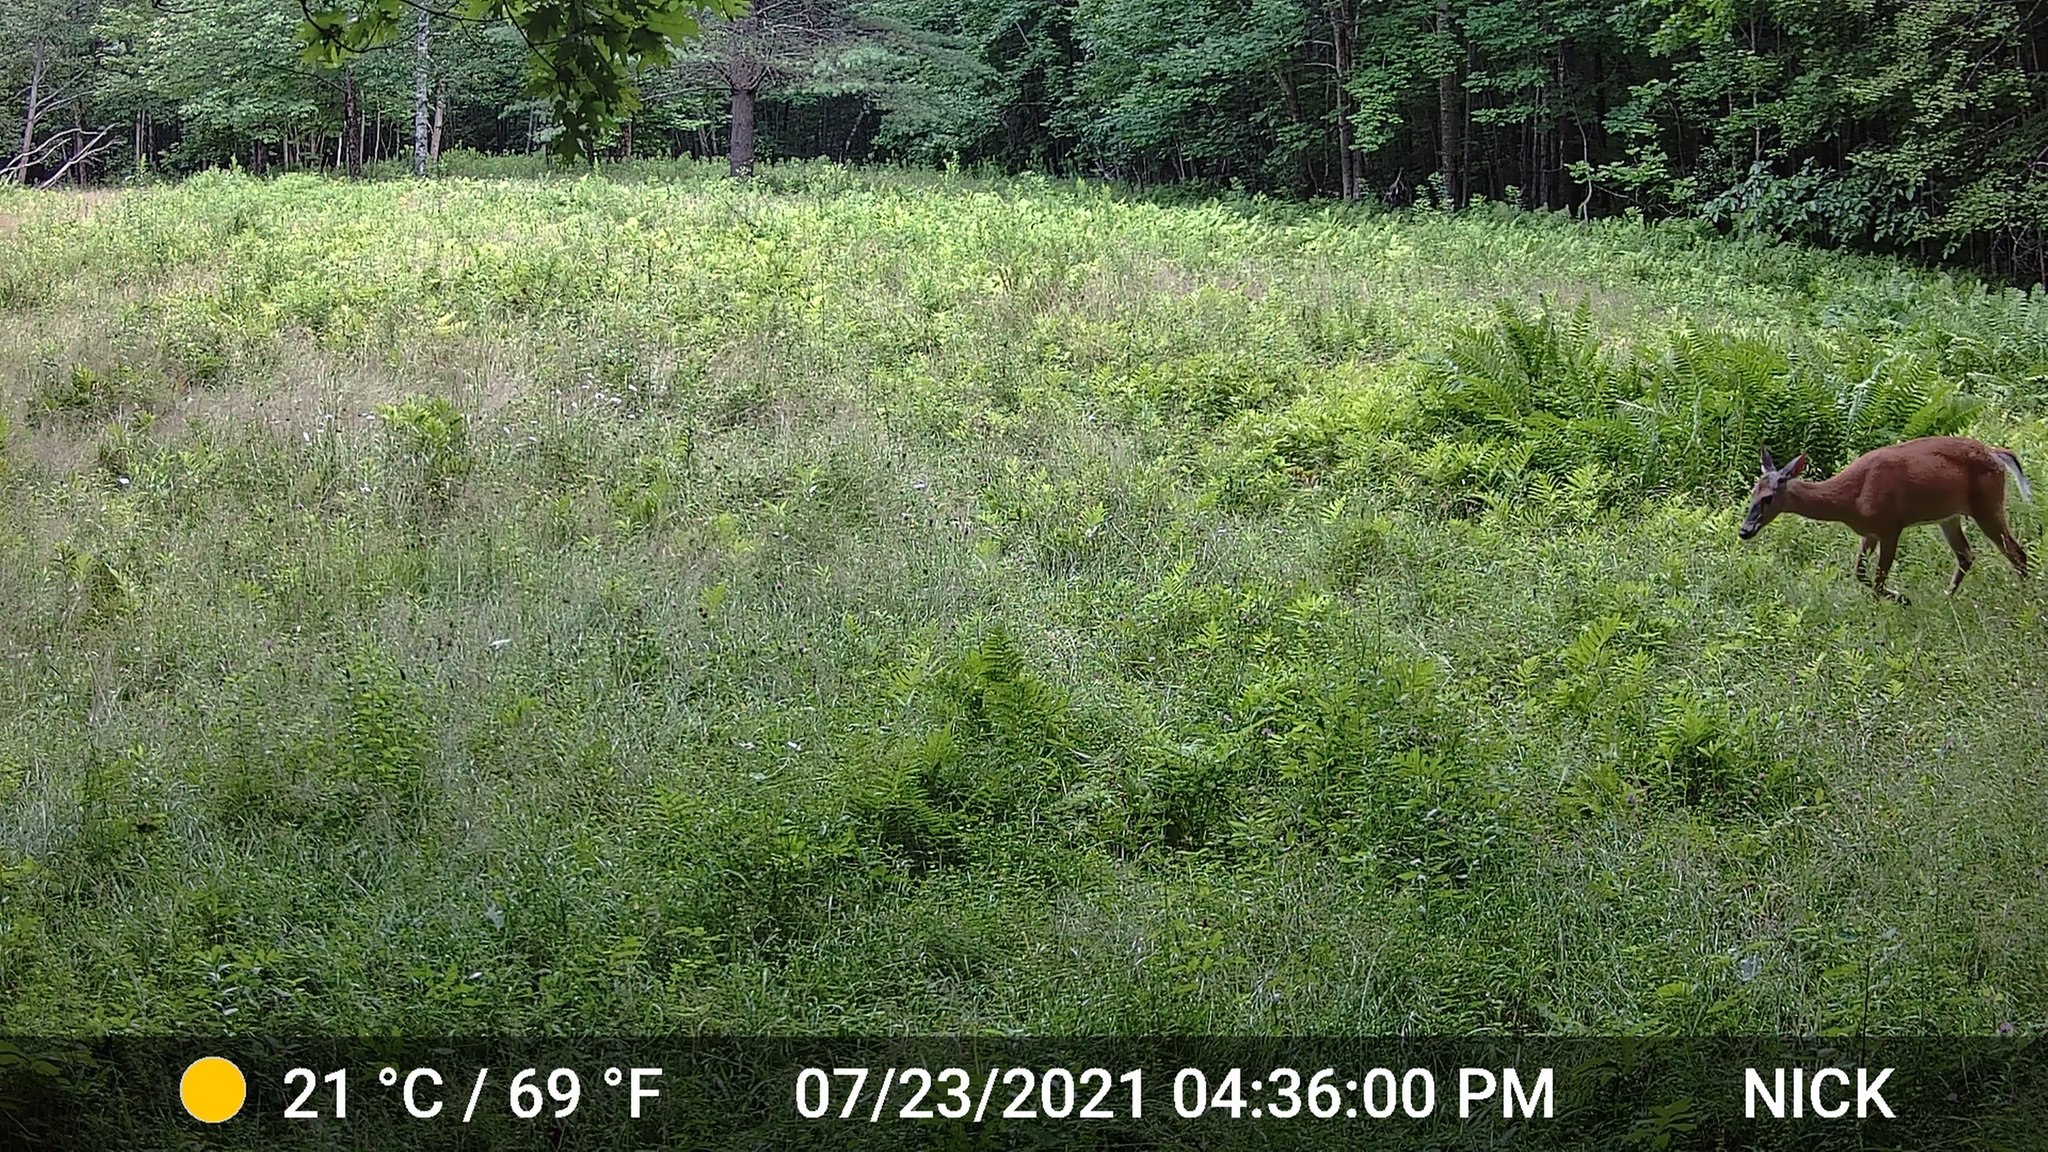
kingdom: Animalia
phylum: Chordata
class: Mammalia
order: Artiodactyla
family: Cervidae
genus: Odocoileus
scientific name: Odocoileus virginianus
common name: White-tailed deer
